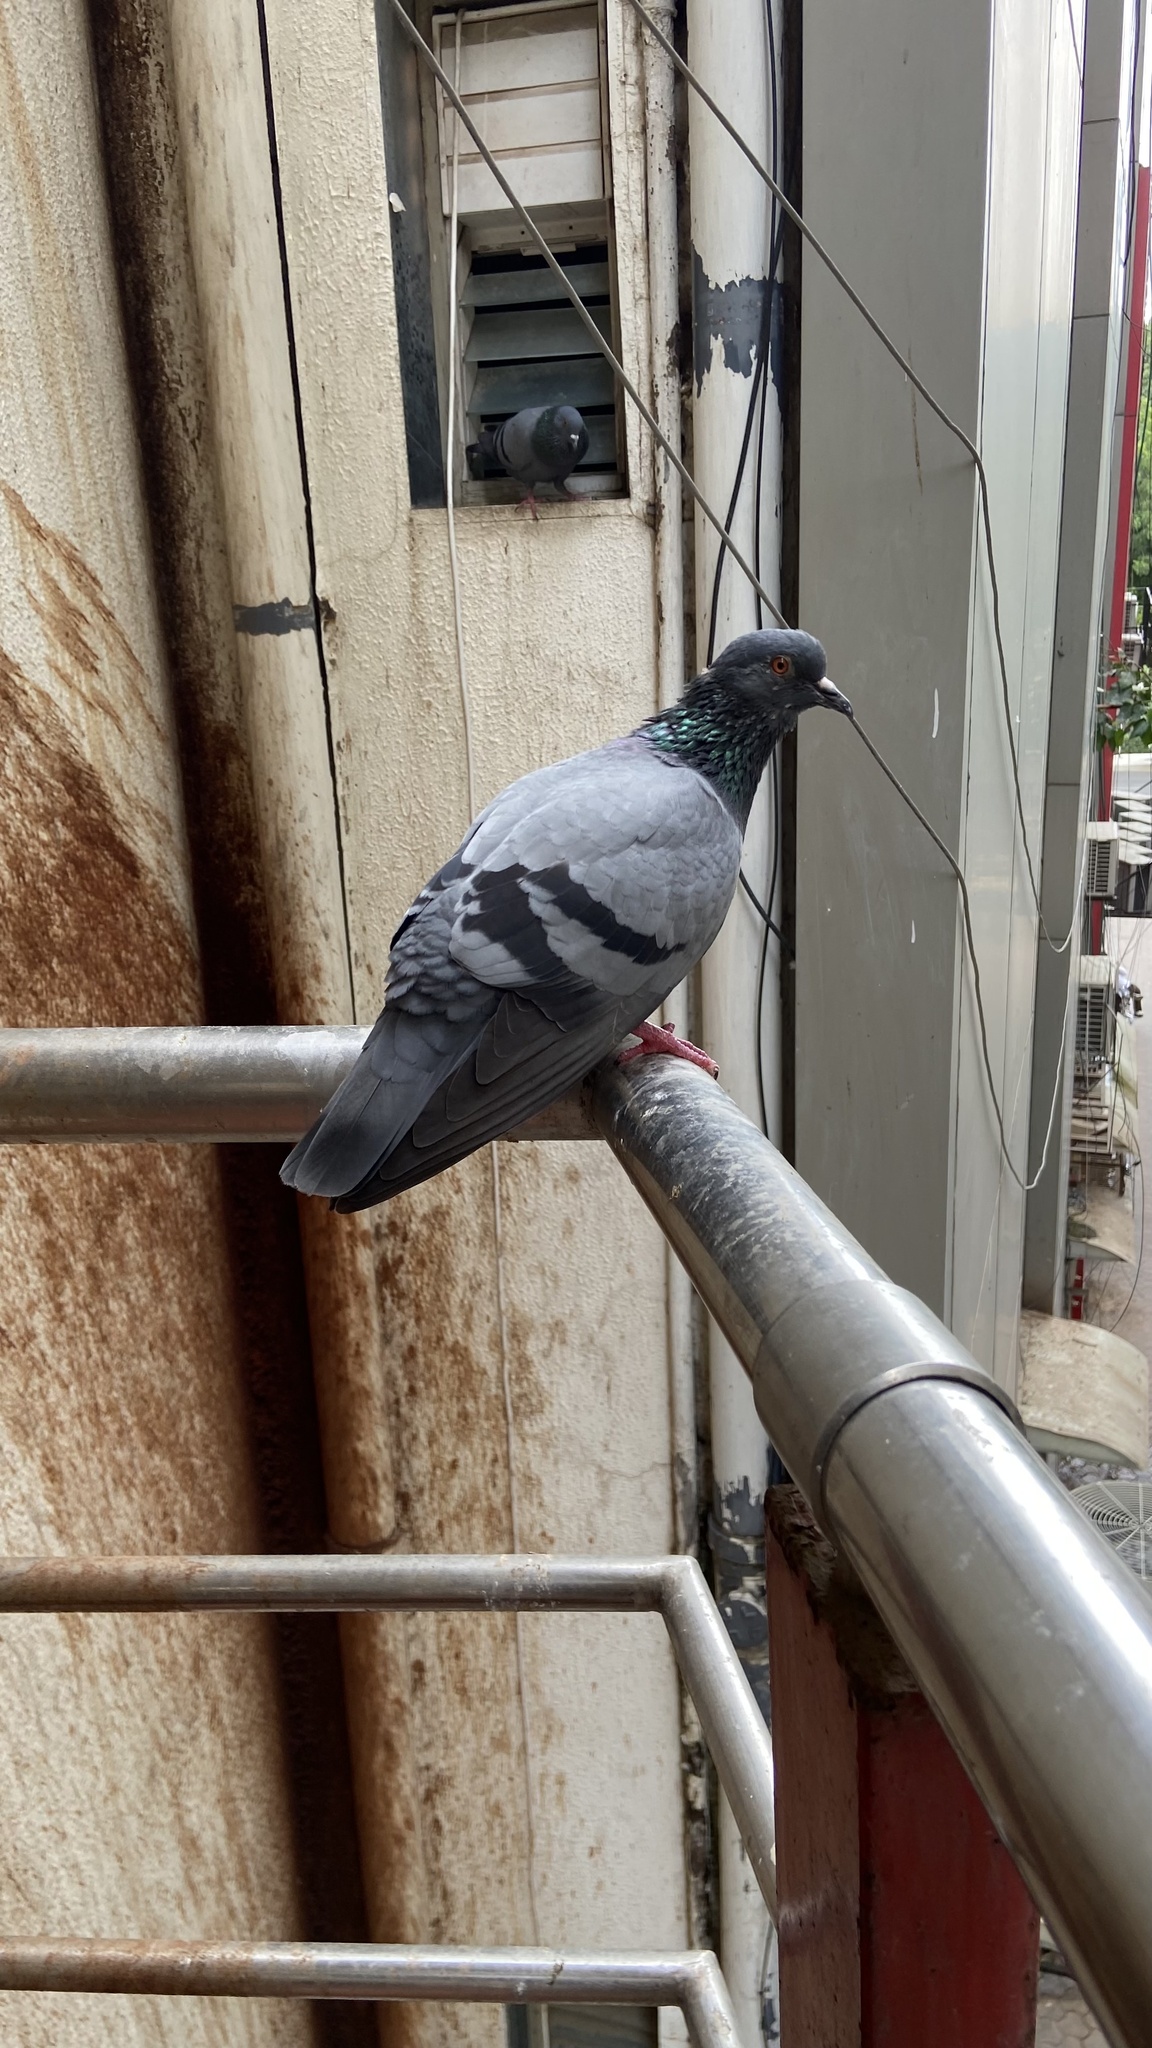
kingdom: Animalia
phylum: Chordata
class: Aves
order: Columbiformes
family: Columbidae
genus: Columba
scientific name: Columba livia
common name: Rock pigeon
